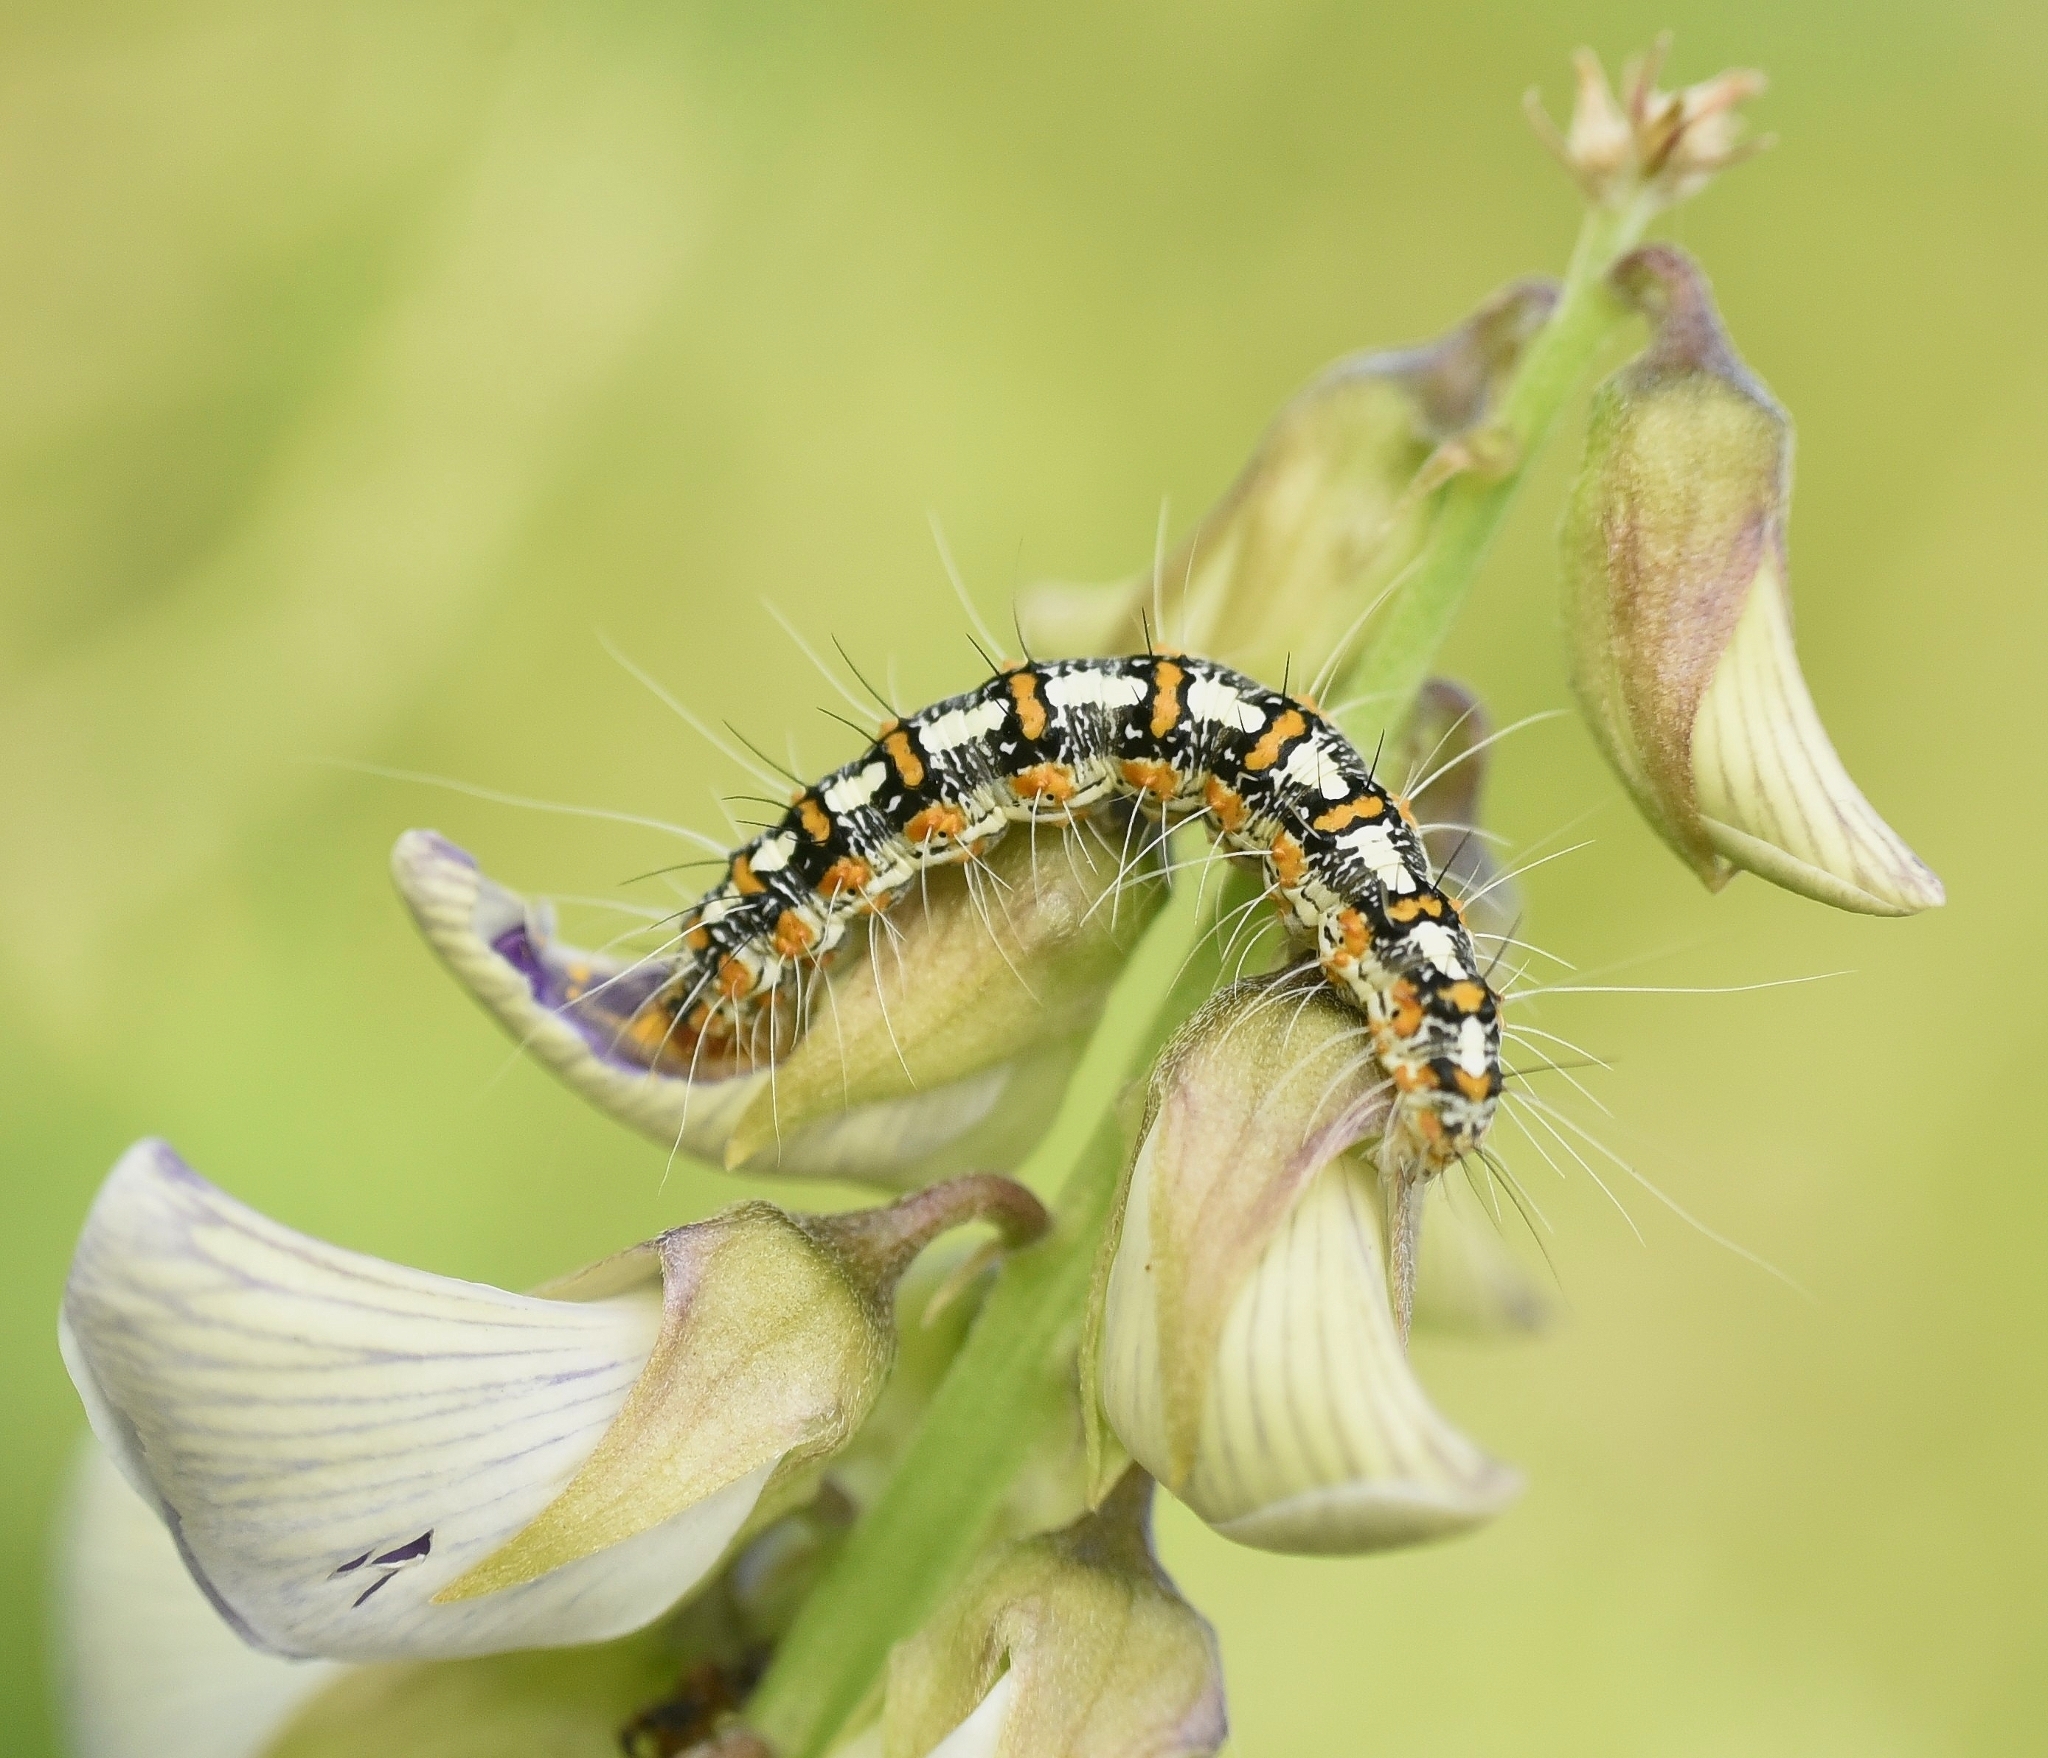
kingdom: Animalia
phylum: Arthropoda
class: Insecta
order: Lepidoptera
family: Erebidae
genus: Utetheisa
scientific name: Utetheisa lotrix
